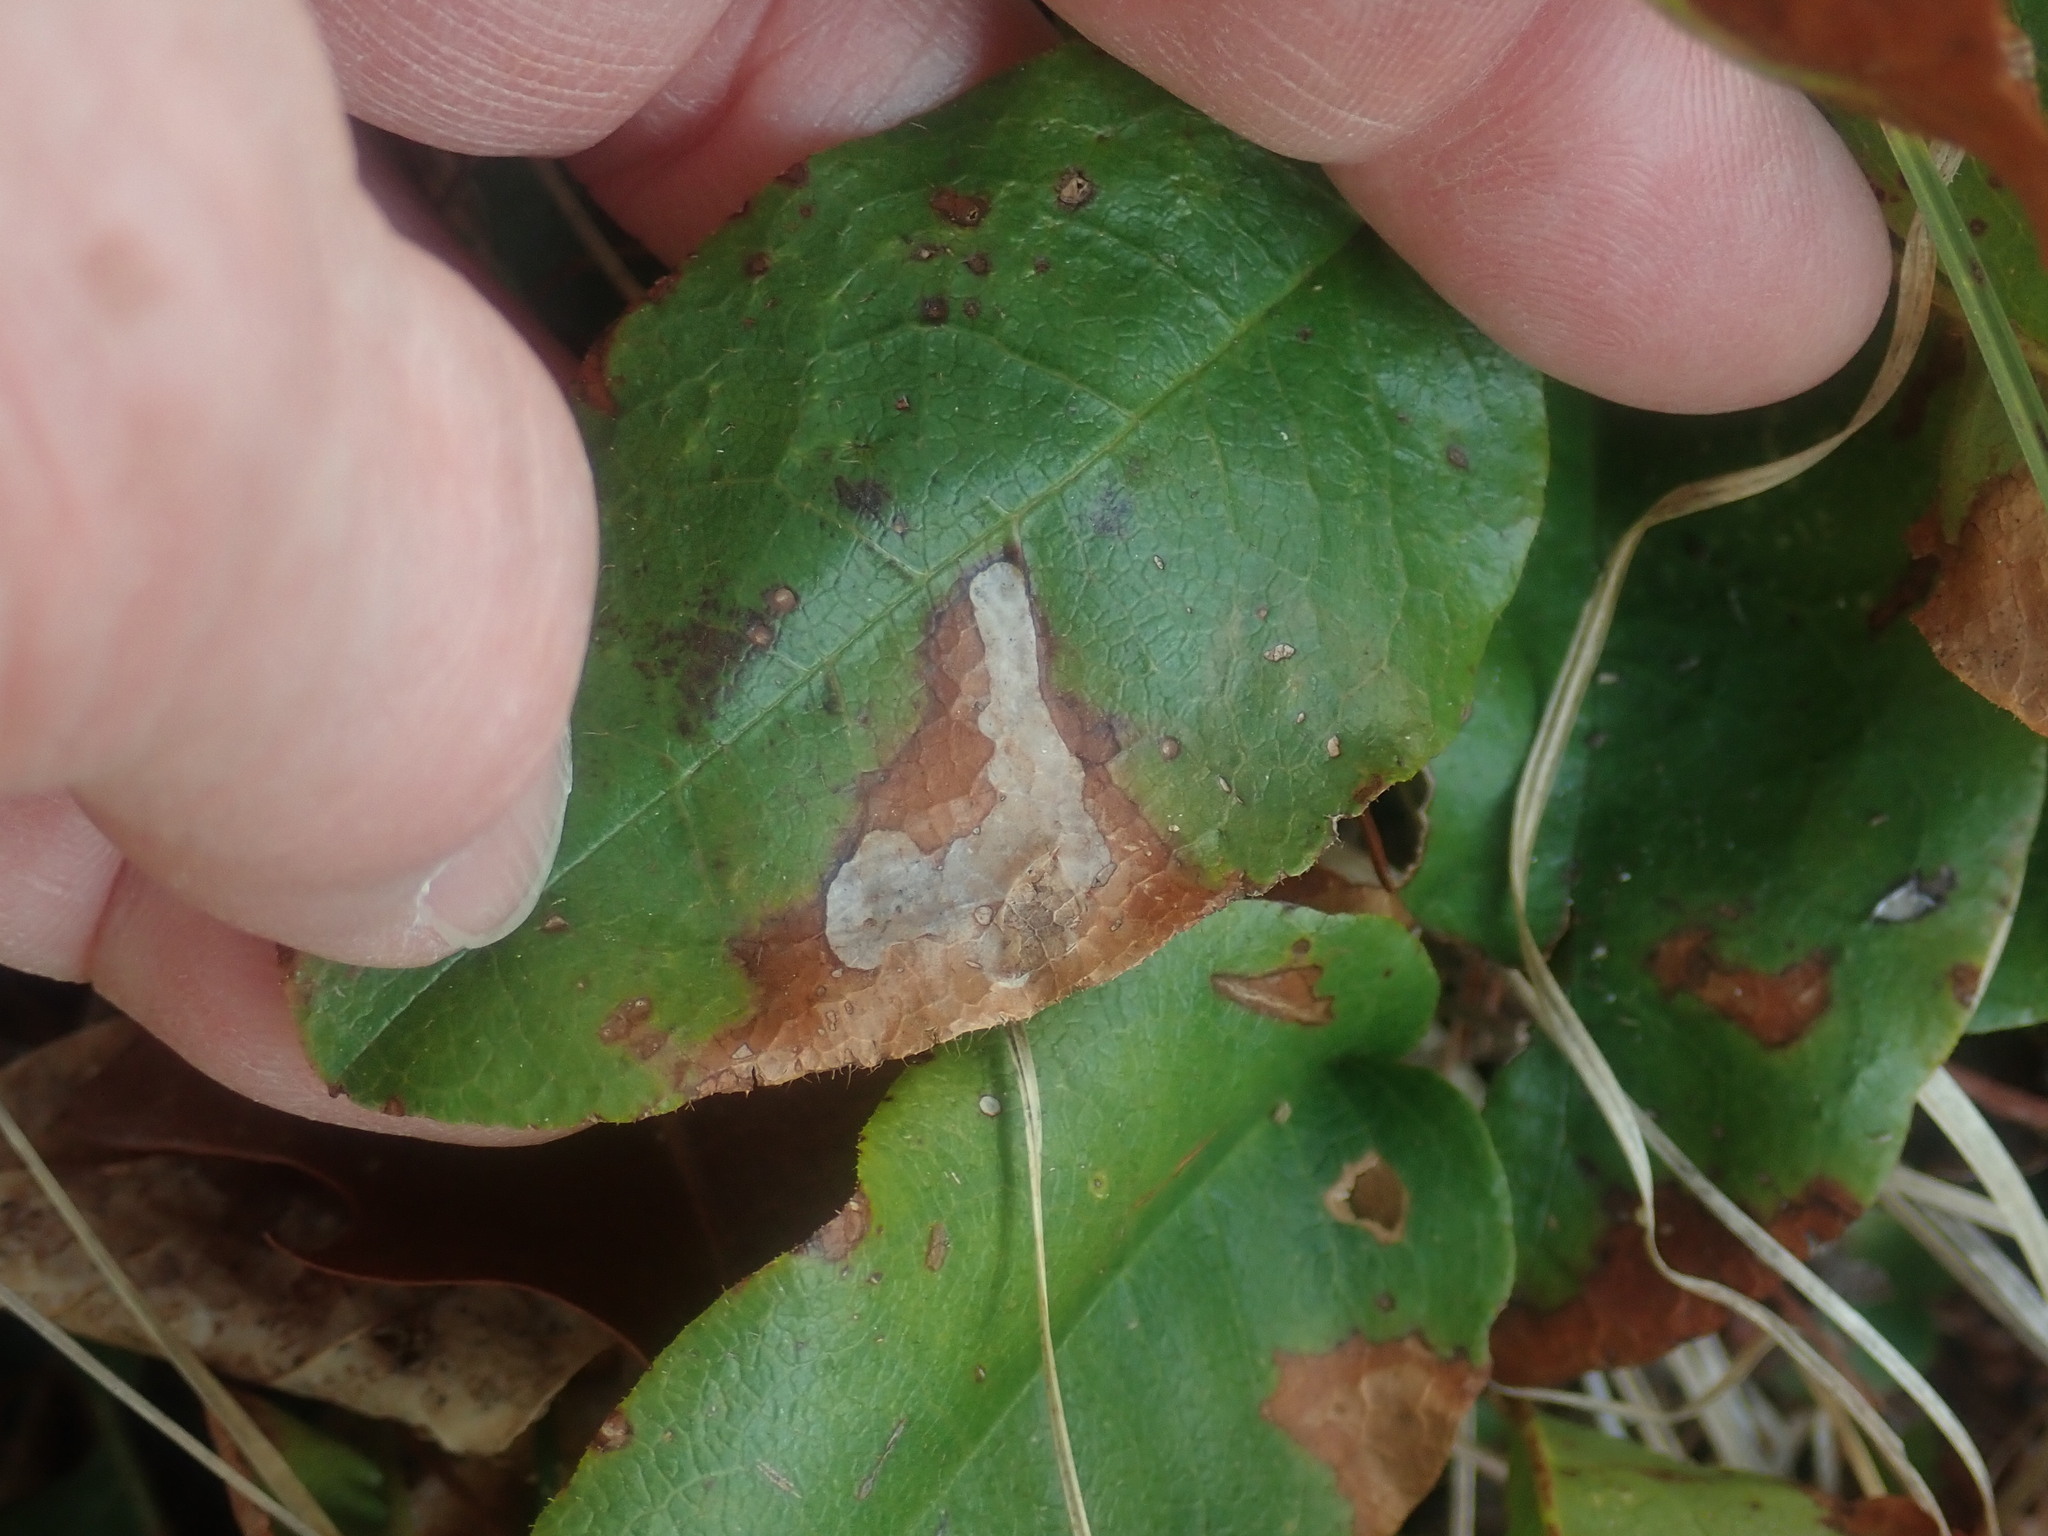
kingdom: Animalia
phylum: Arthropoda
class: Insecta
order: Coleoptera
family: Buprestidae
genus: Brachys
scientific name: Brachys
